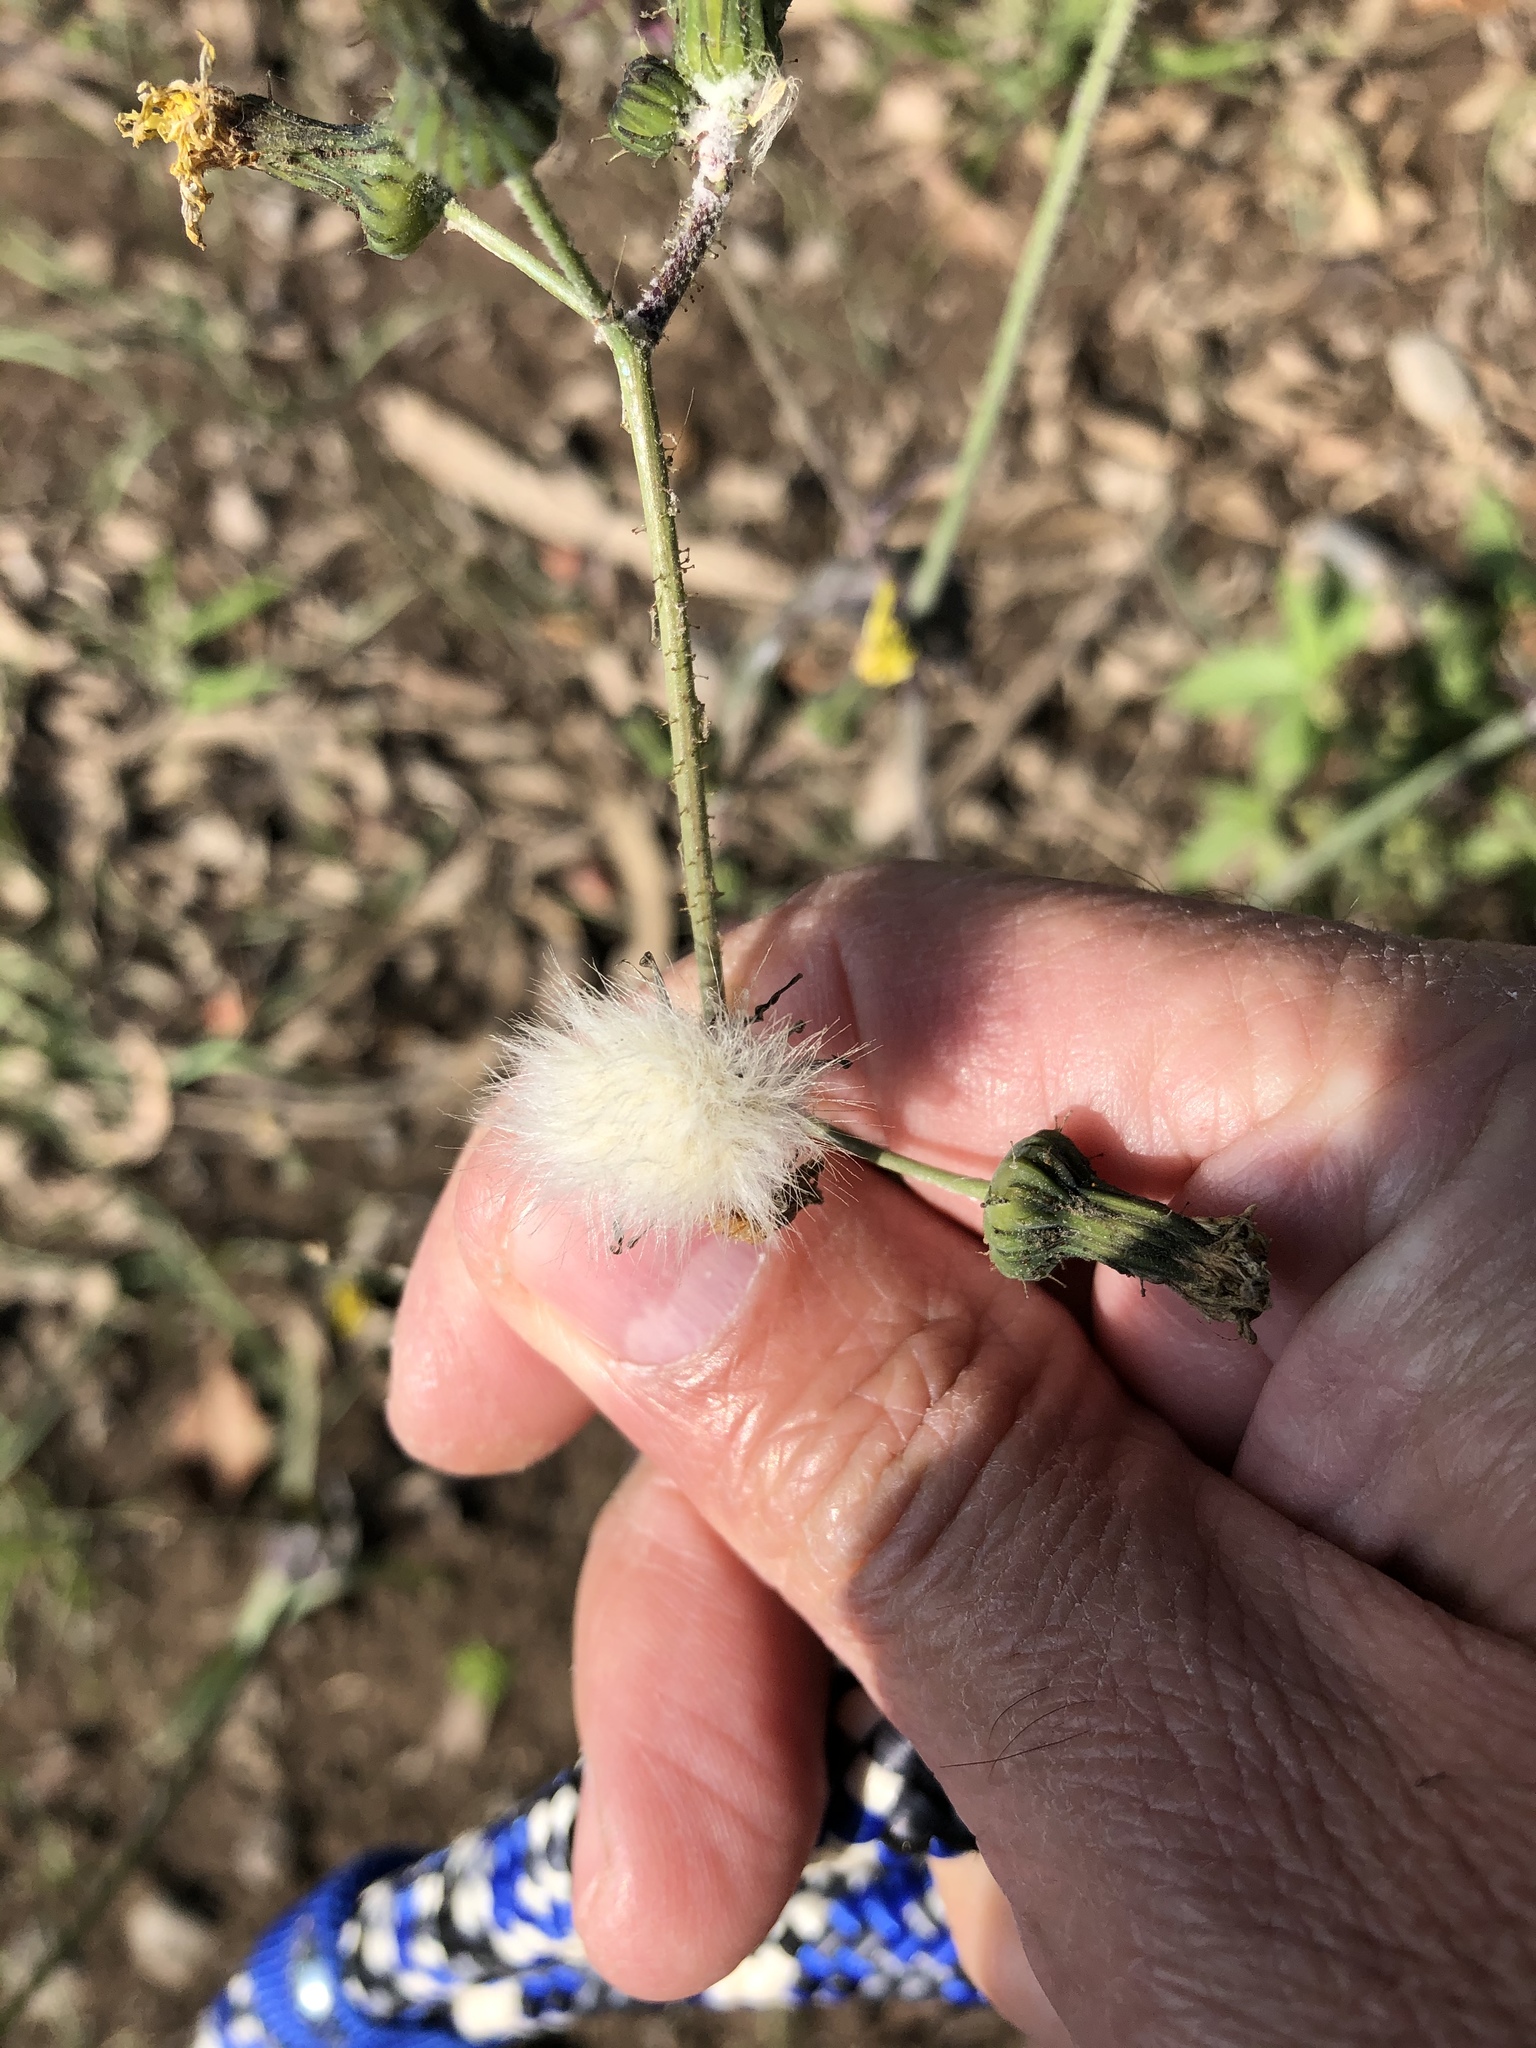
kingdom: Plantae
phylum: Tracheophyta
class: Magnoliopsida
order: Asterales
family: Asteraceae
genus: Taraxacum
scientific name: Taraxacum officinale
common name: Common dandelion
